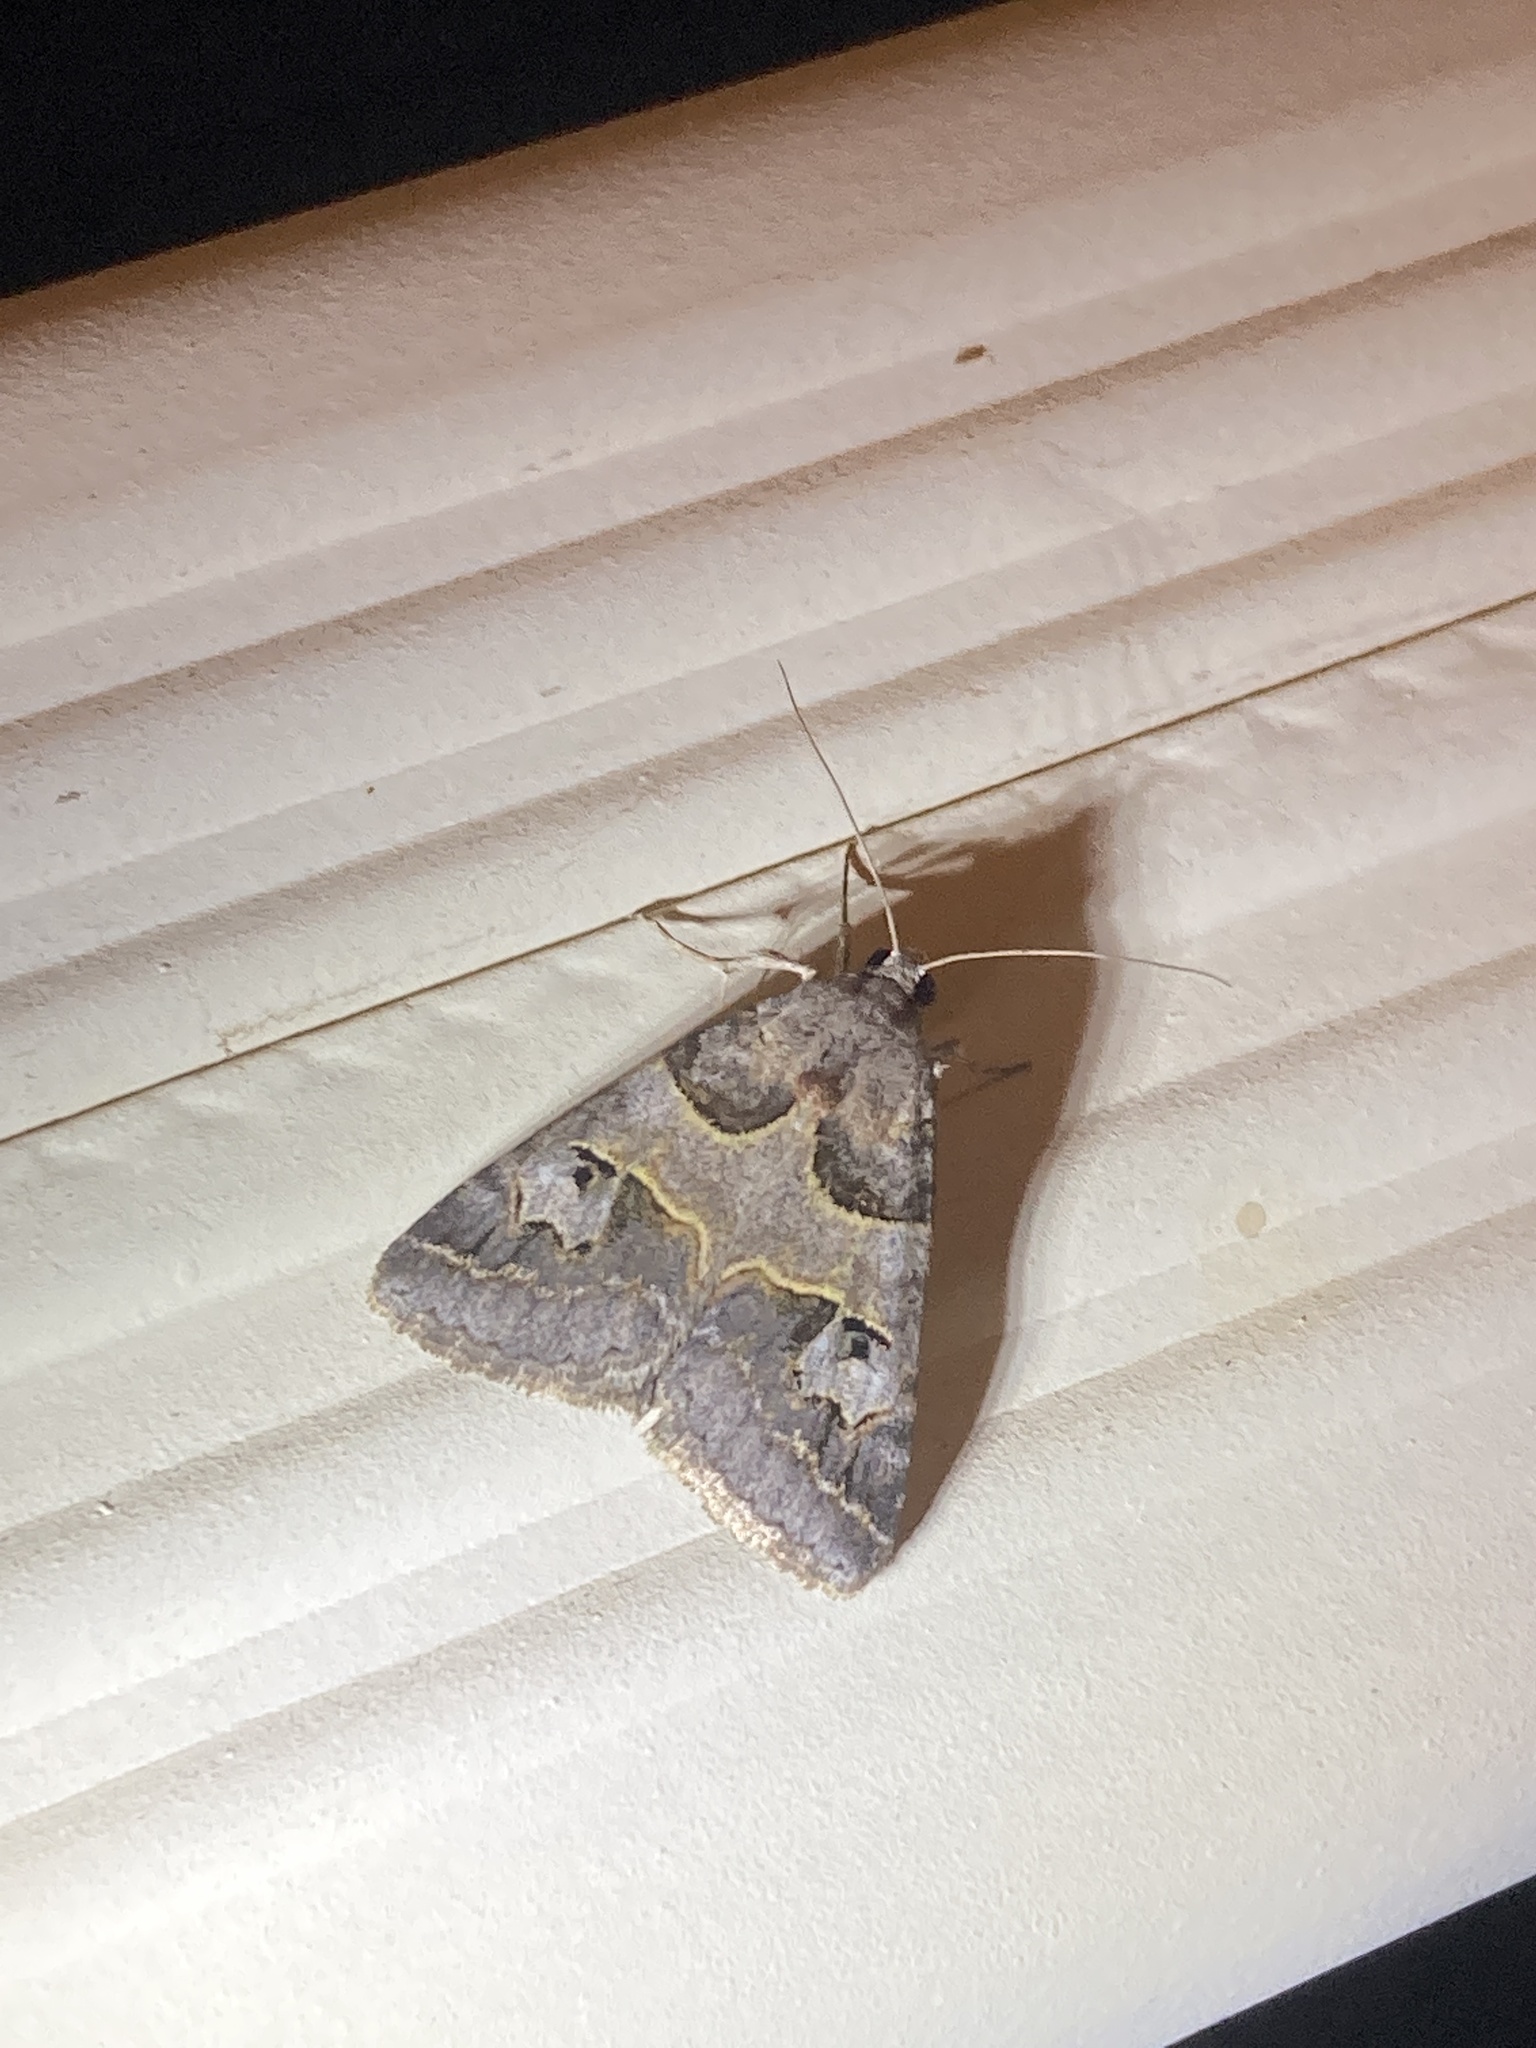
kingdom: Animalia
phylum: Arthropoda
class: Insecta
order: Lepidoptera
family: Erebidae
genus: Drasteria
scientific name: Drasteria ingeniculata
